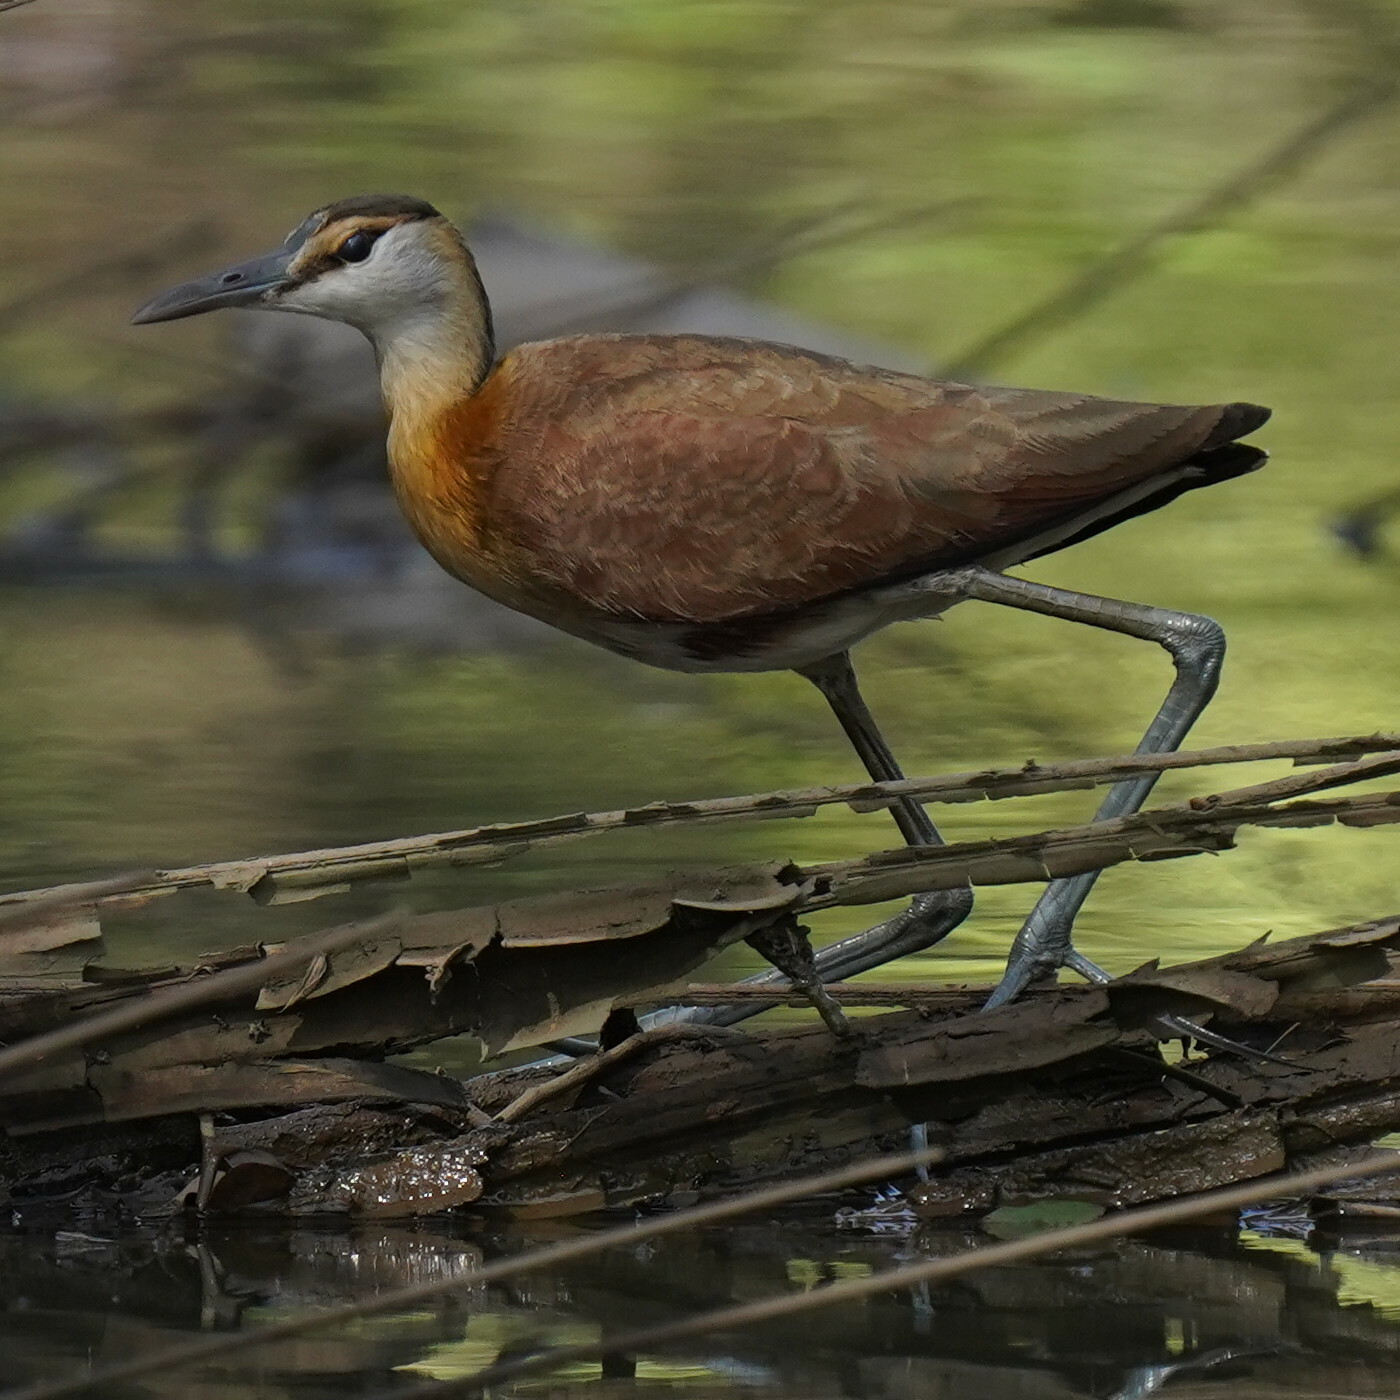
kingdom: Animalia
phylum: Chordata
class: Aves
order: Charadriiformes
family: Jacanidae
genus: Actophilornis
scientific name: Actophilornis africanus
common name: African jacana
